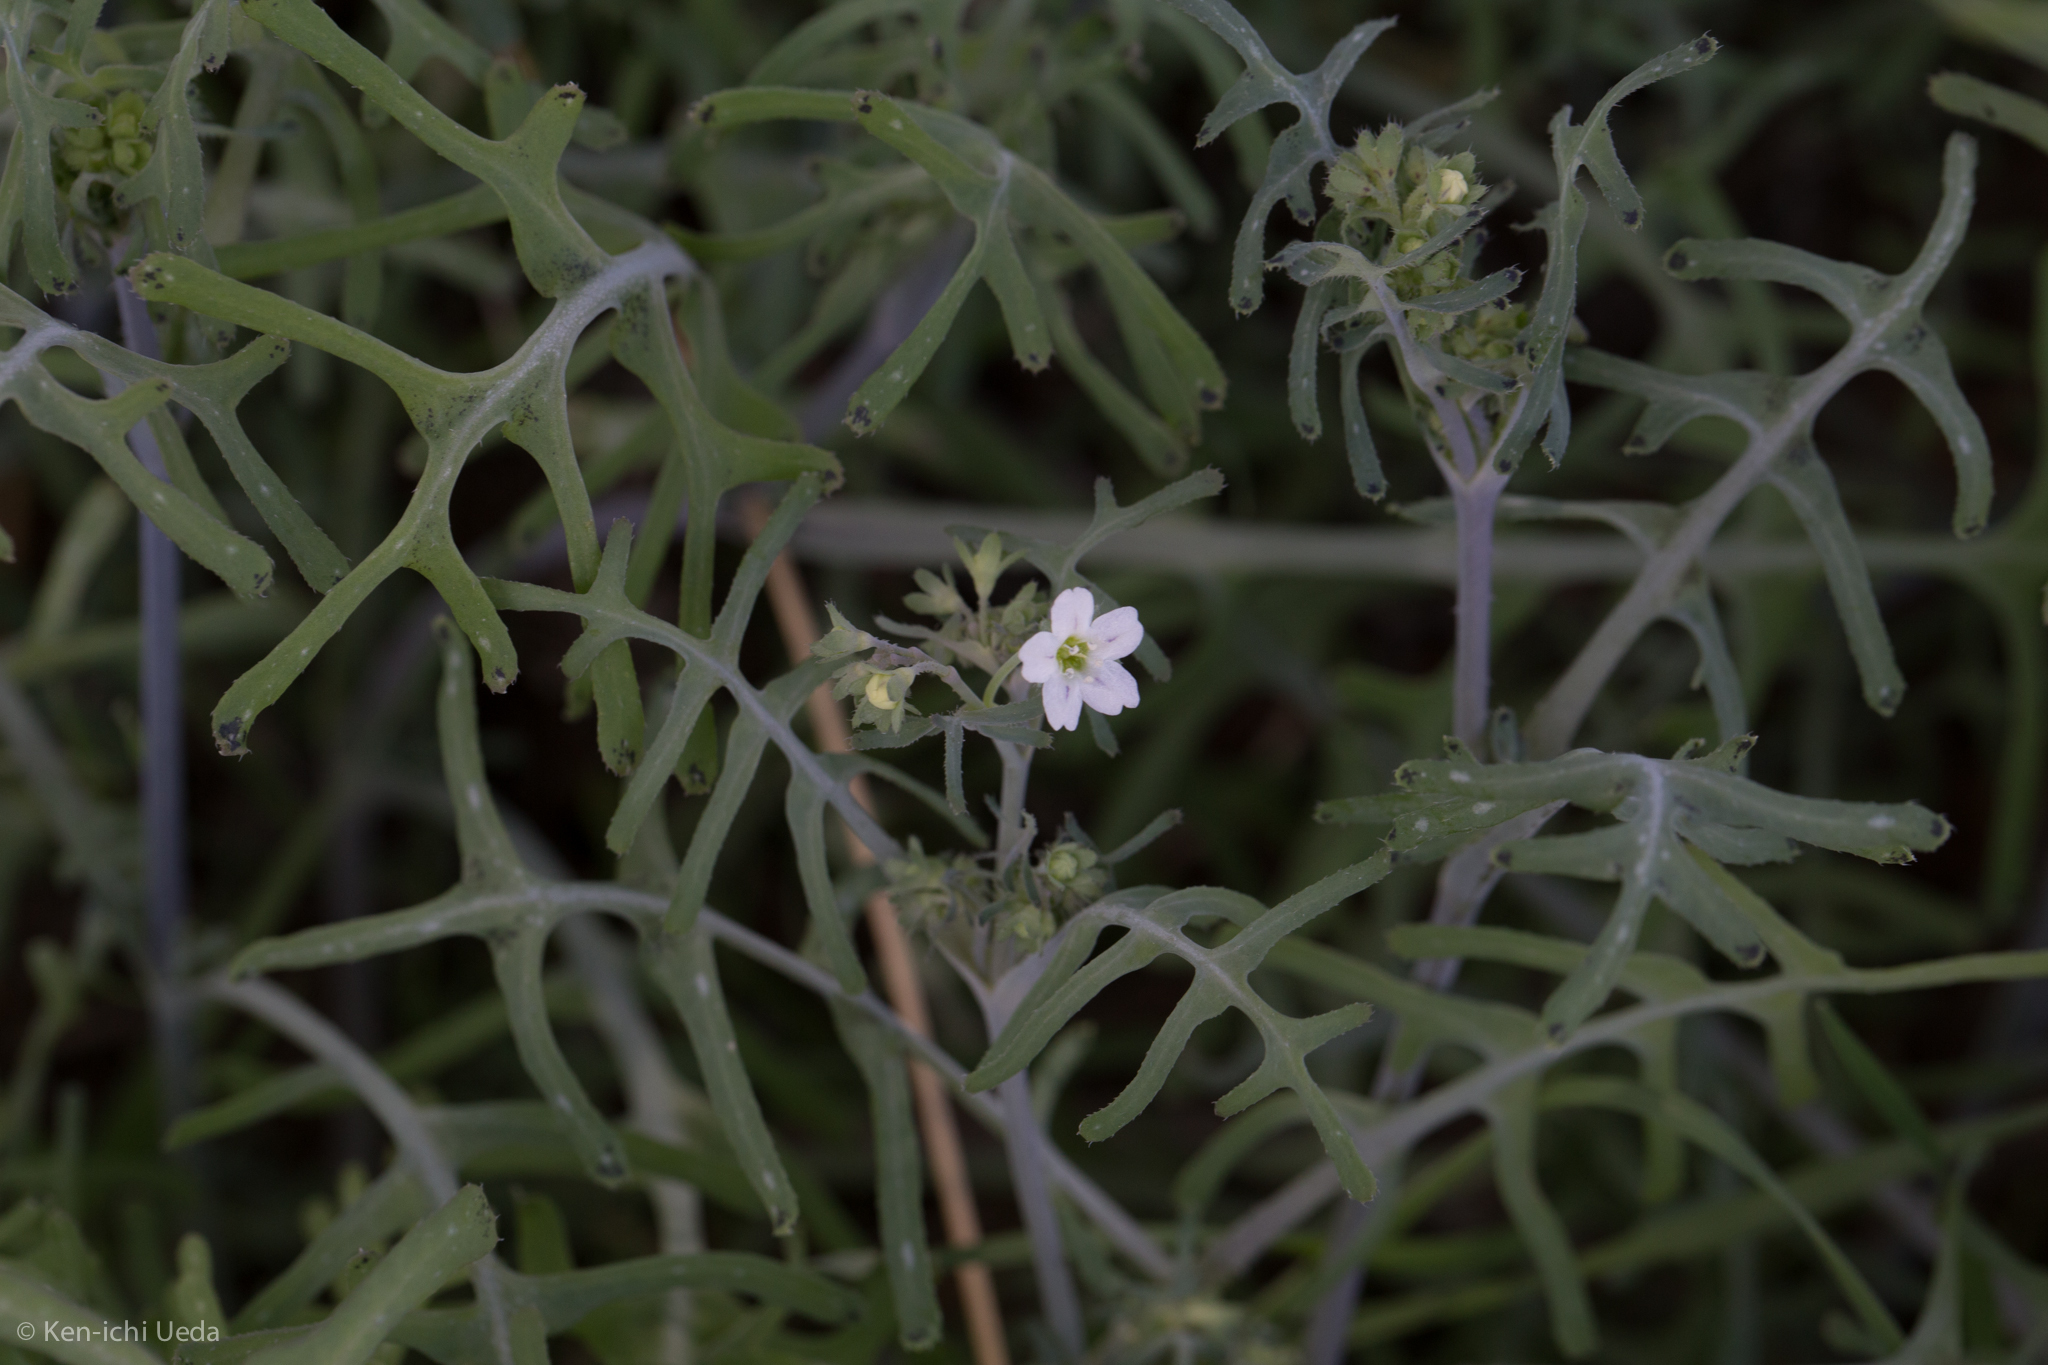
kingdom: Plantae
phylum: Tracheophyta
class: Magnoliopsida
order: Boraginales
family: Hydrophyllaceae
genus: Pholistoma
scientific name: Pholistoma membranaceum
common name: White fiesta-flower
